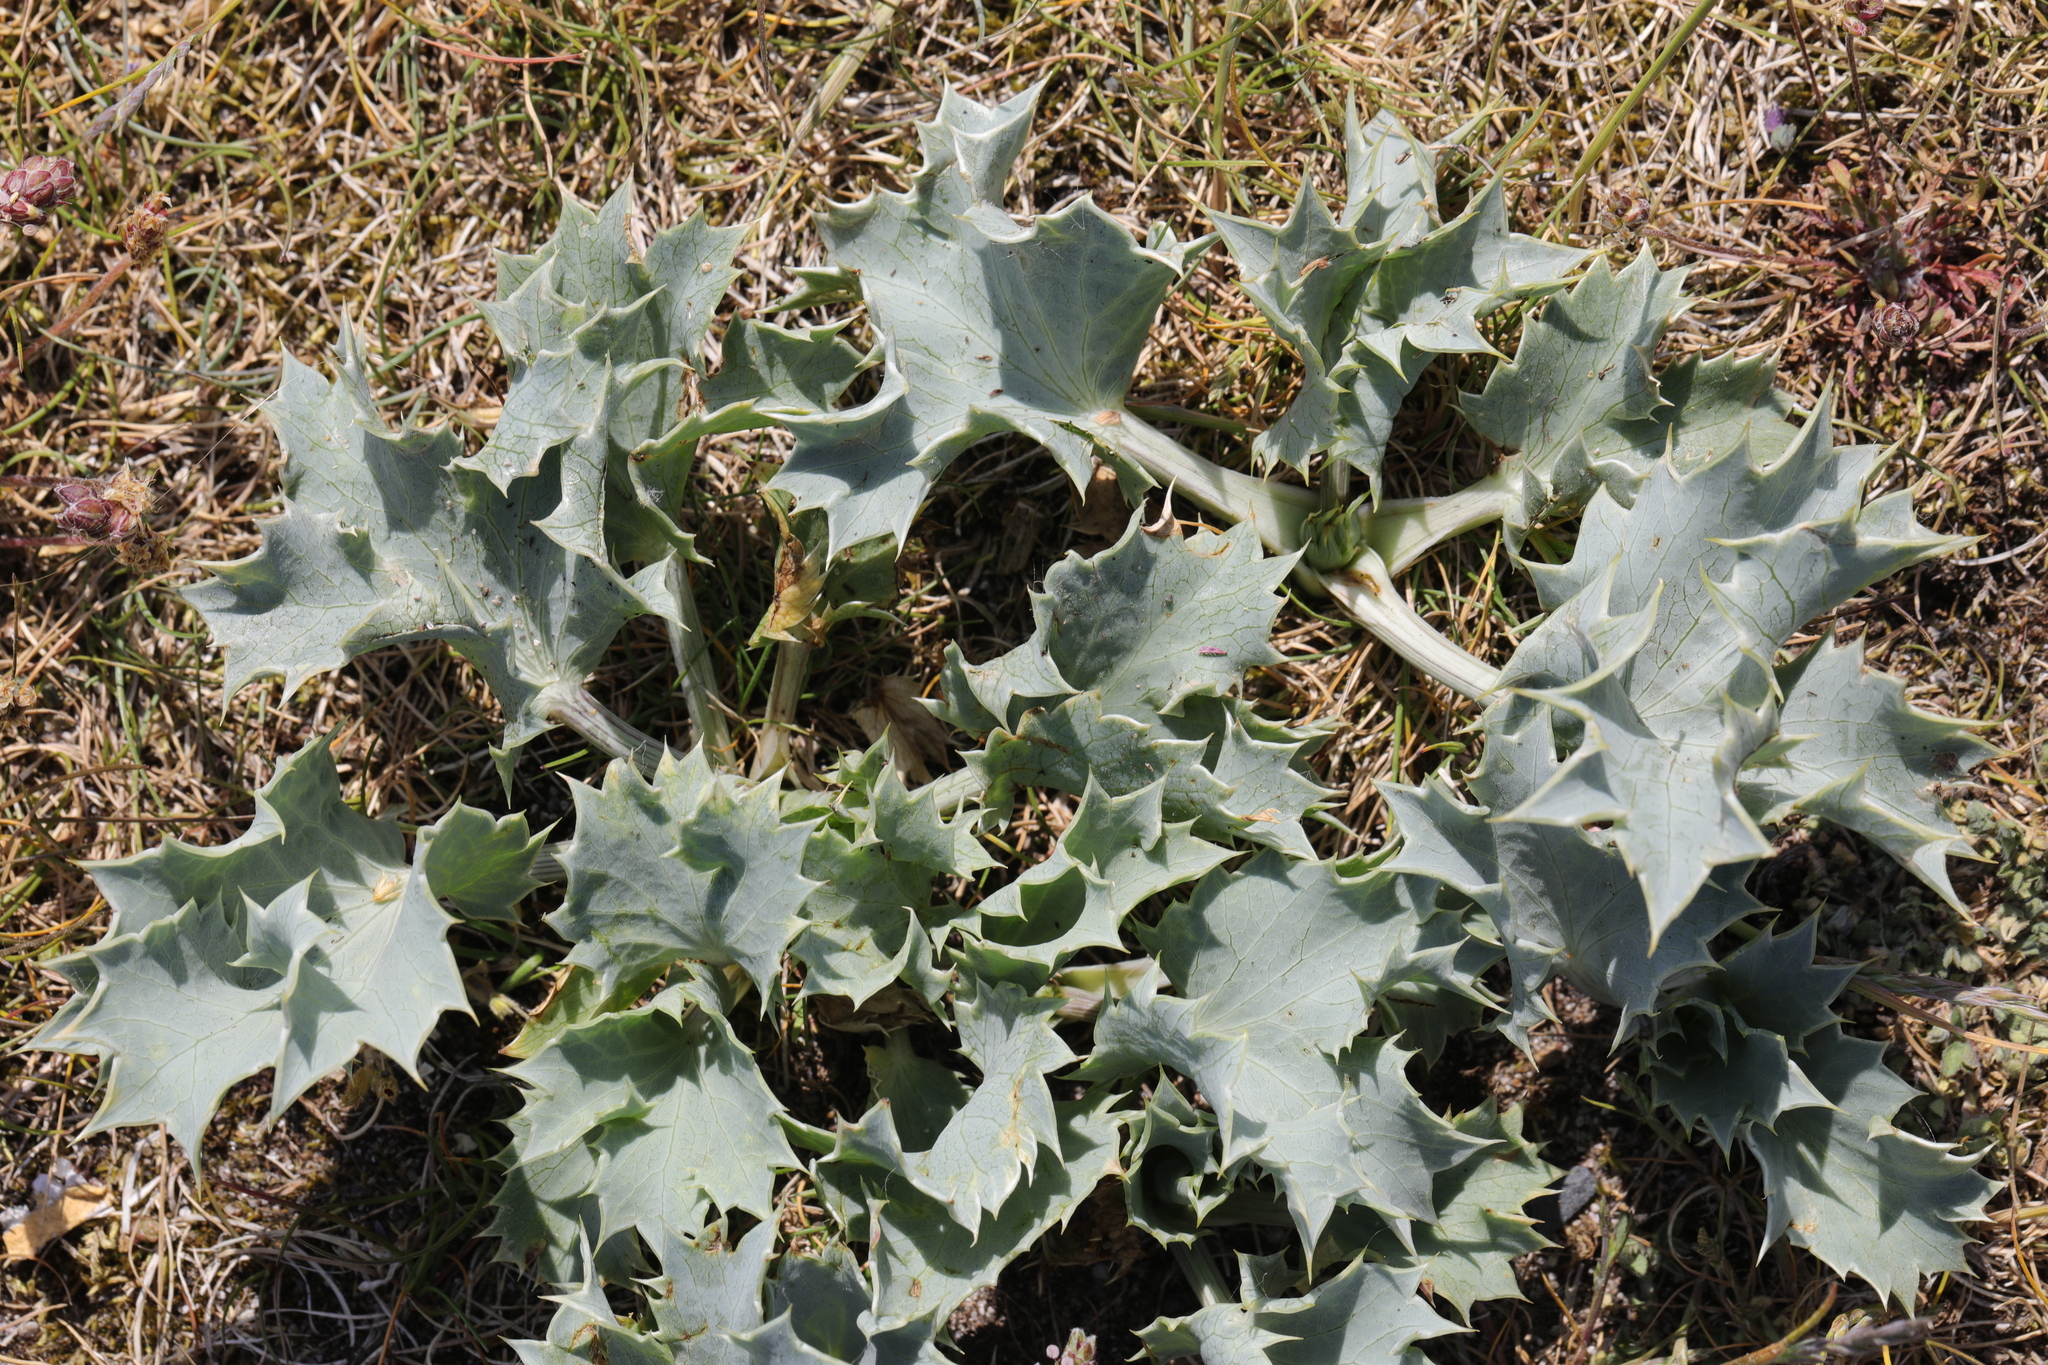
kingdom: Plantae
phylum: Tracheophyta
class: Magnoliopsida
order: Apiales
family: Apiaceae
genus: Eryngium
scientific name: Eryngium maritimum
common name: Sea-holly
